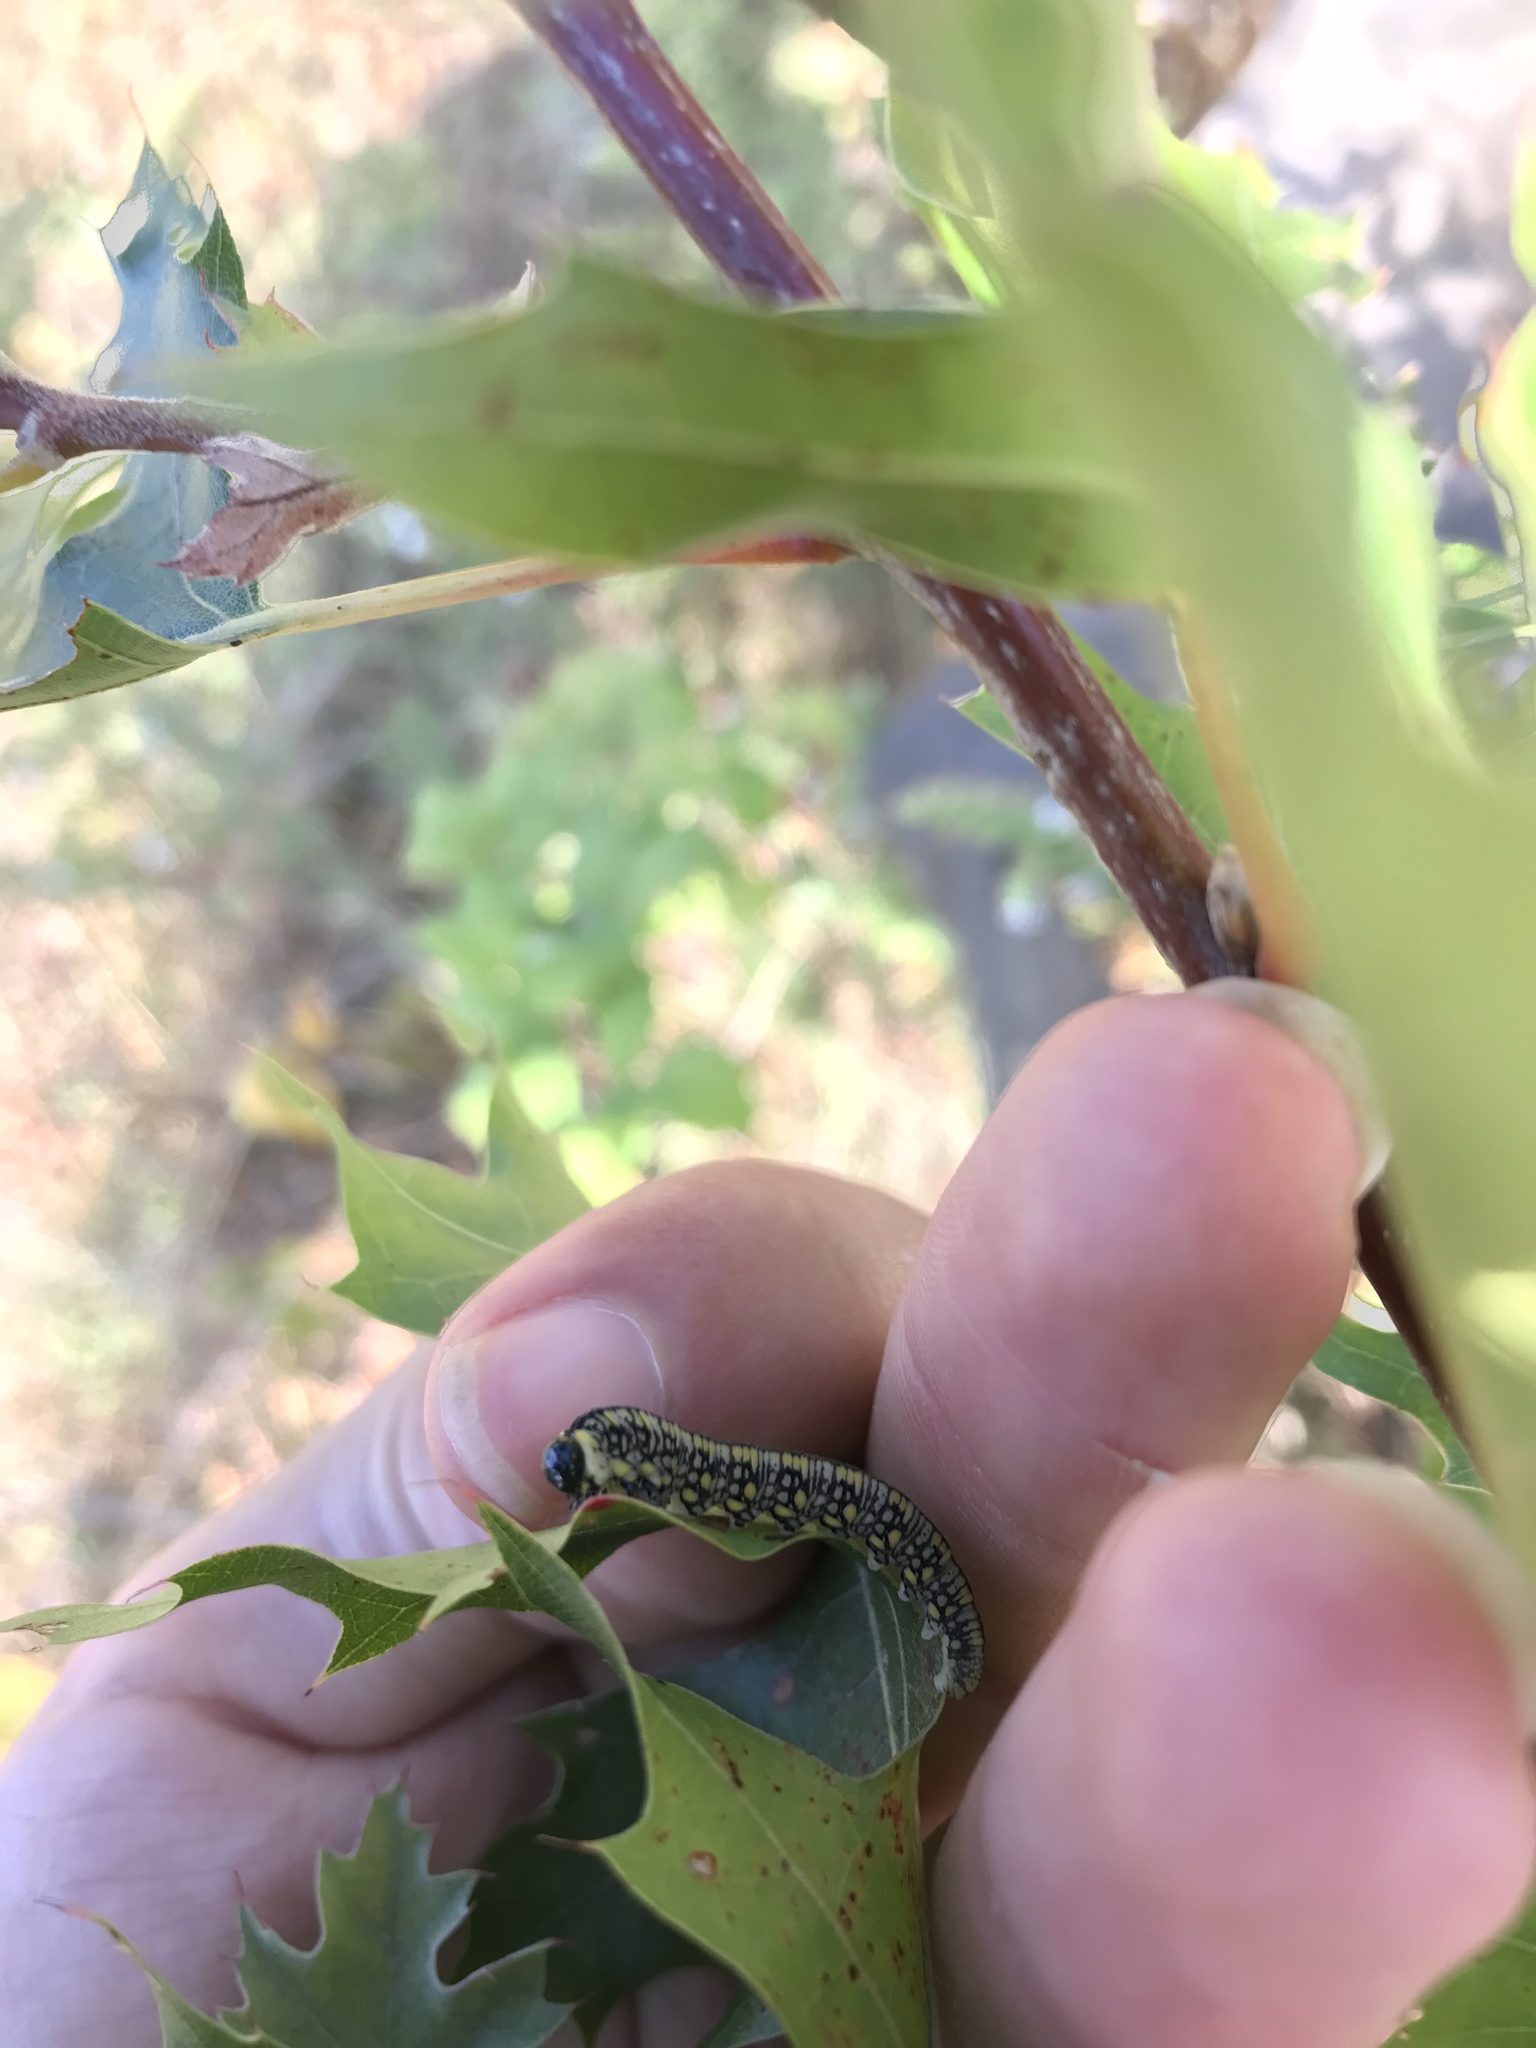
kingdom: Animalia
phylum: Arthropoda
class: Insecta
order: Hymenoptera
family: Diprionidae
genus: Diprion
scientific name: Diprion similis
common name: Pine sawfly
